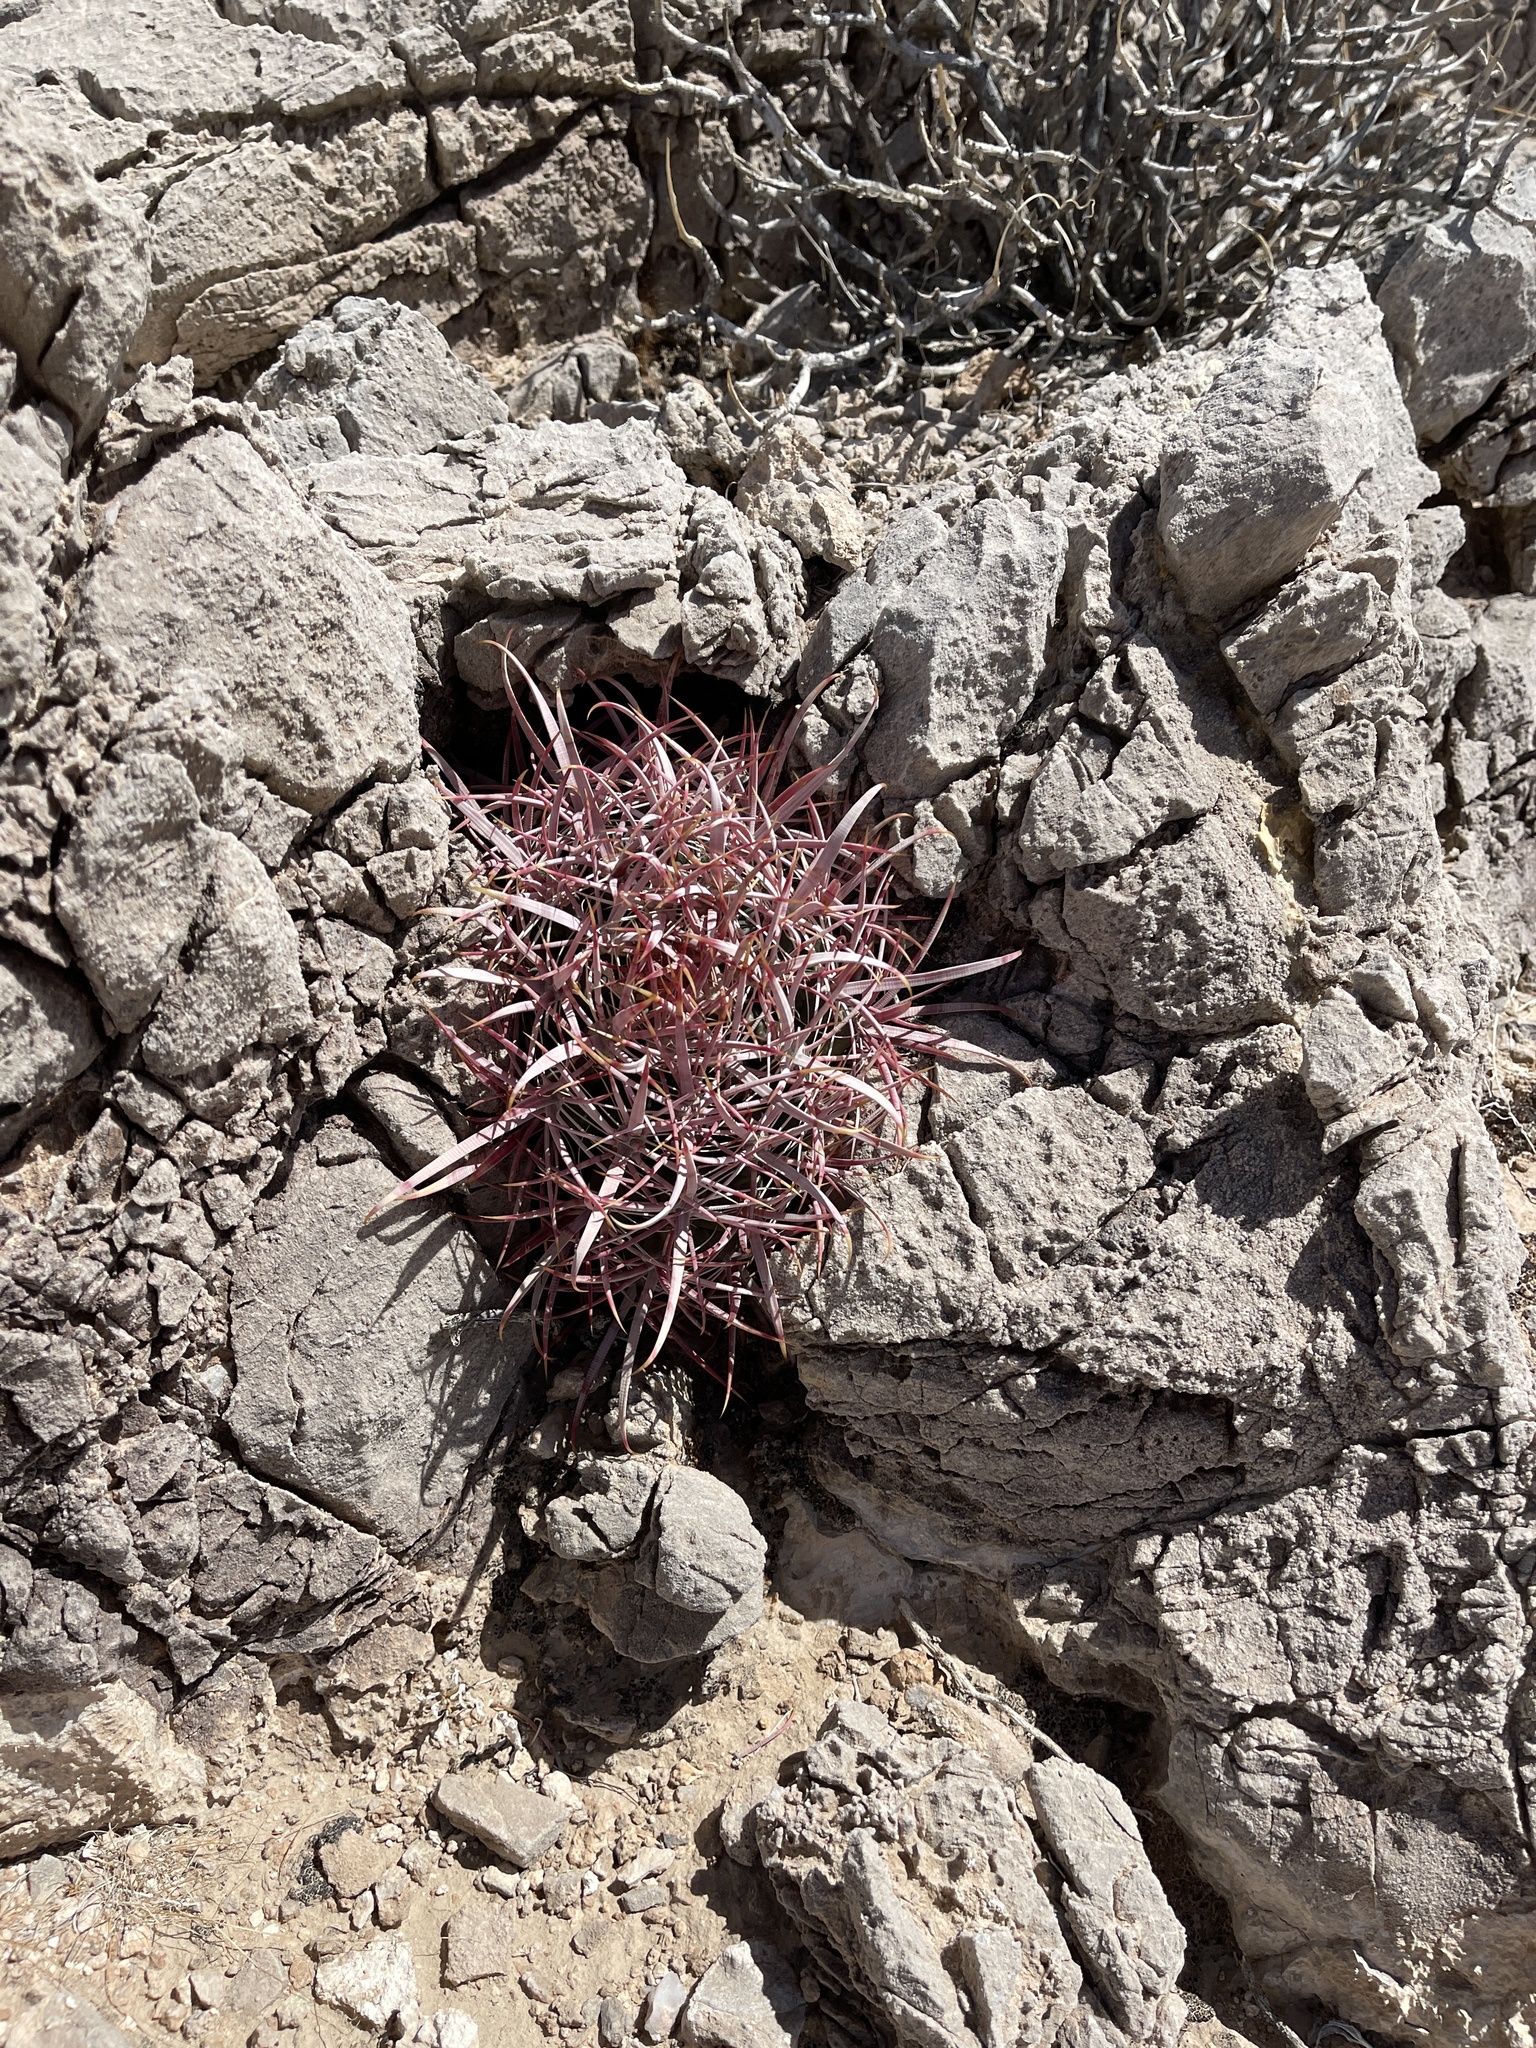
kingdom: Plantae
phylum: Tracheophyta
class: Magnoliopsida
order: Caryophyllales
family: Cactaceae
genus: Ferocactus
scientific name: Ferocactus cylindraceus
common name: California barrel cactus
